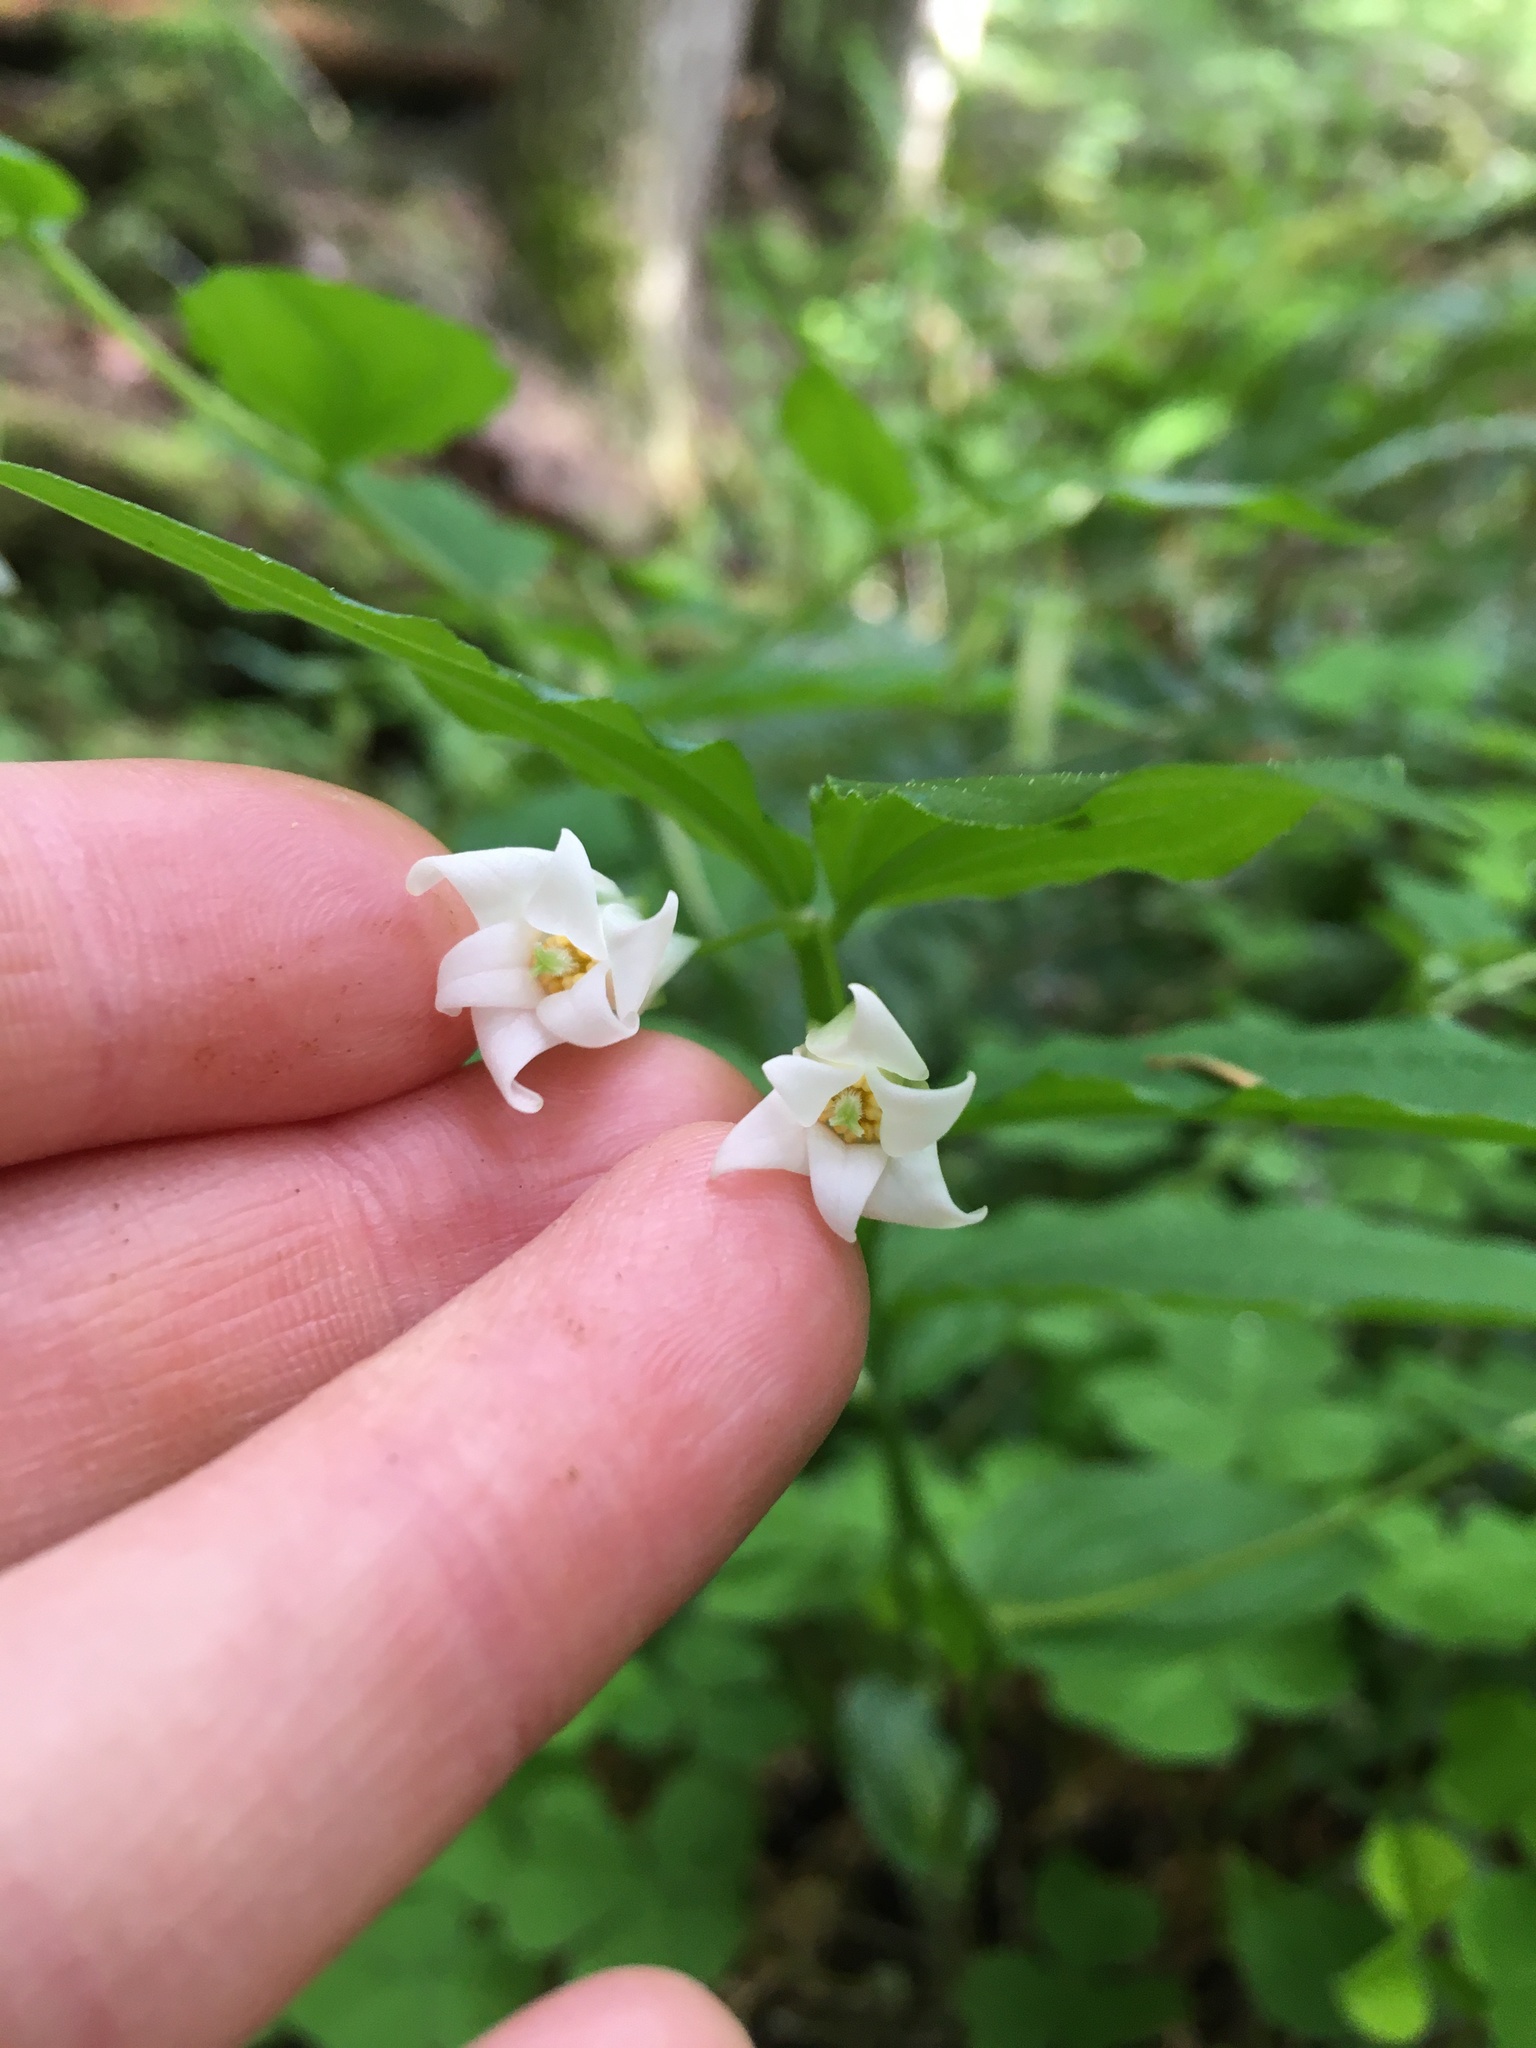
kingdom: Plantae
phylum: Tracheophyta
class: Liliopsida
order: Liliales
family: Liliaceae
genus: Prosartes
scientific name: Prosartes smithii
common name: Fairy-lantern
